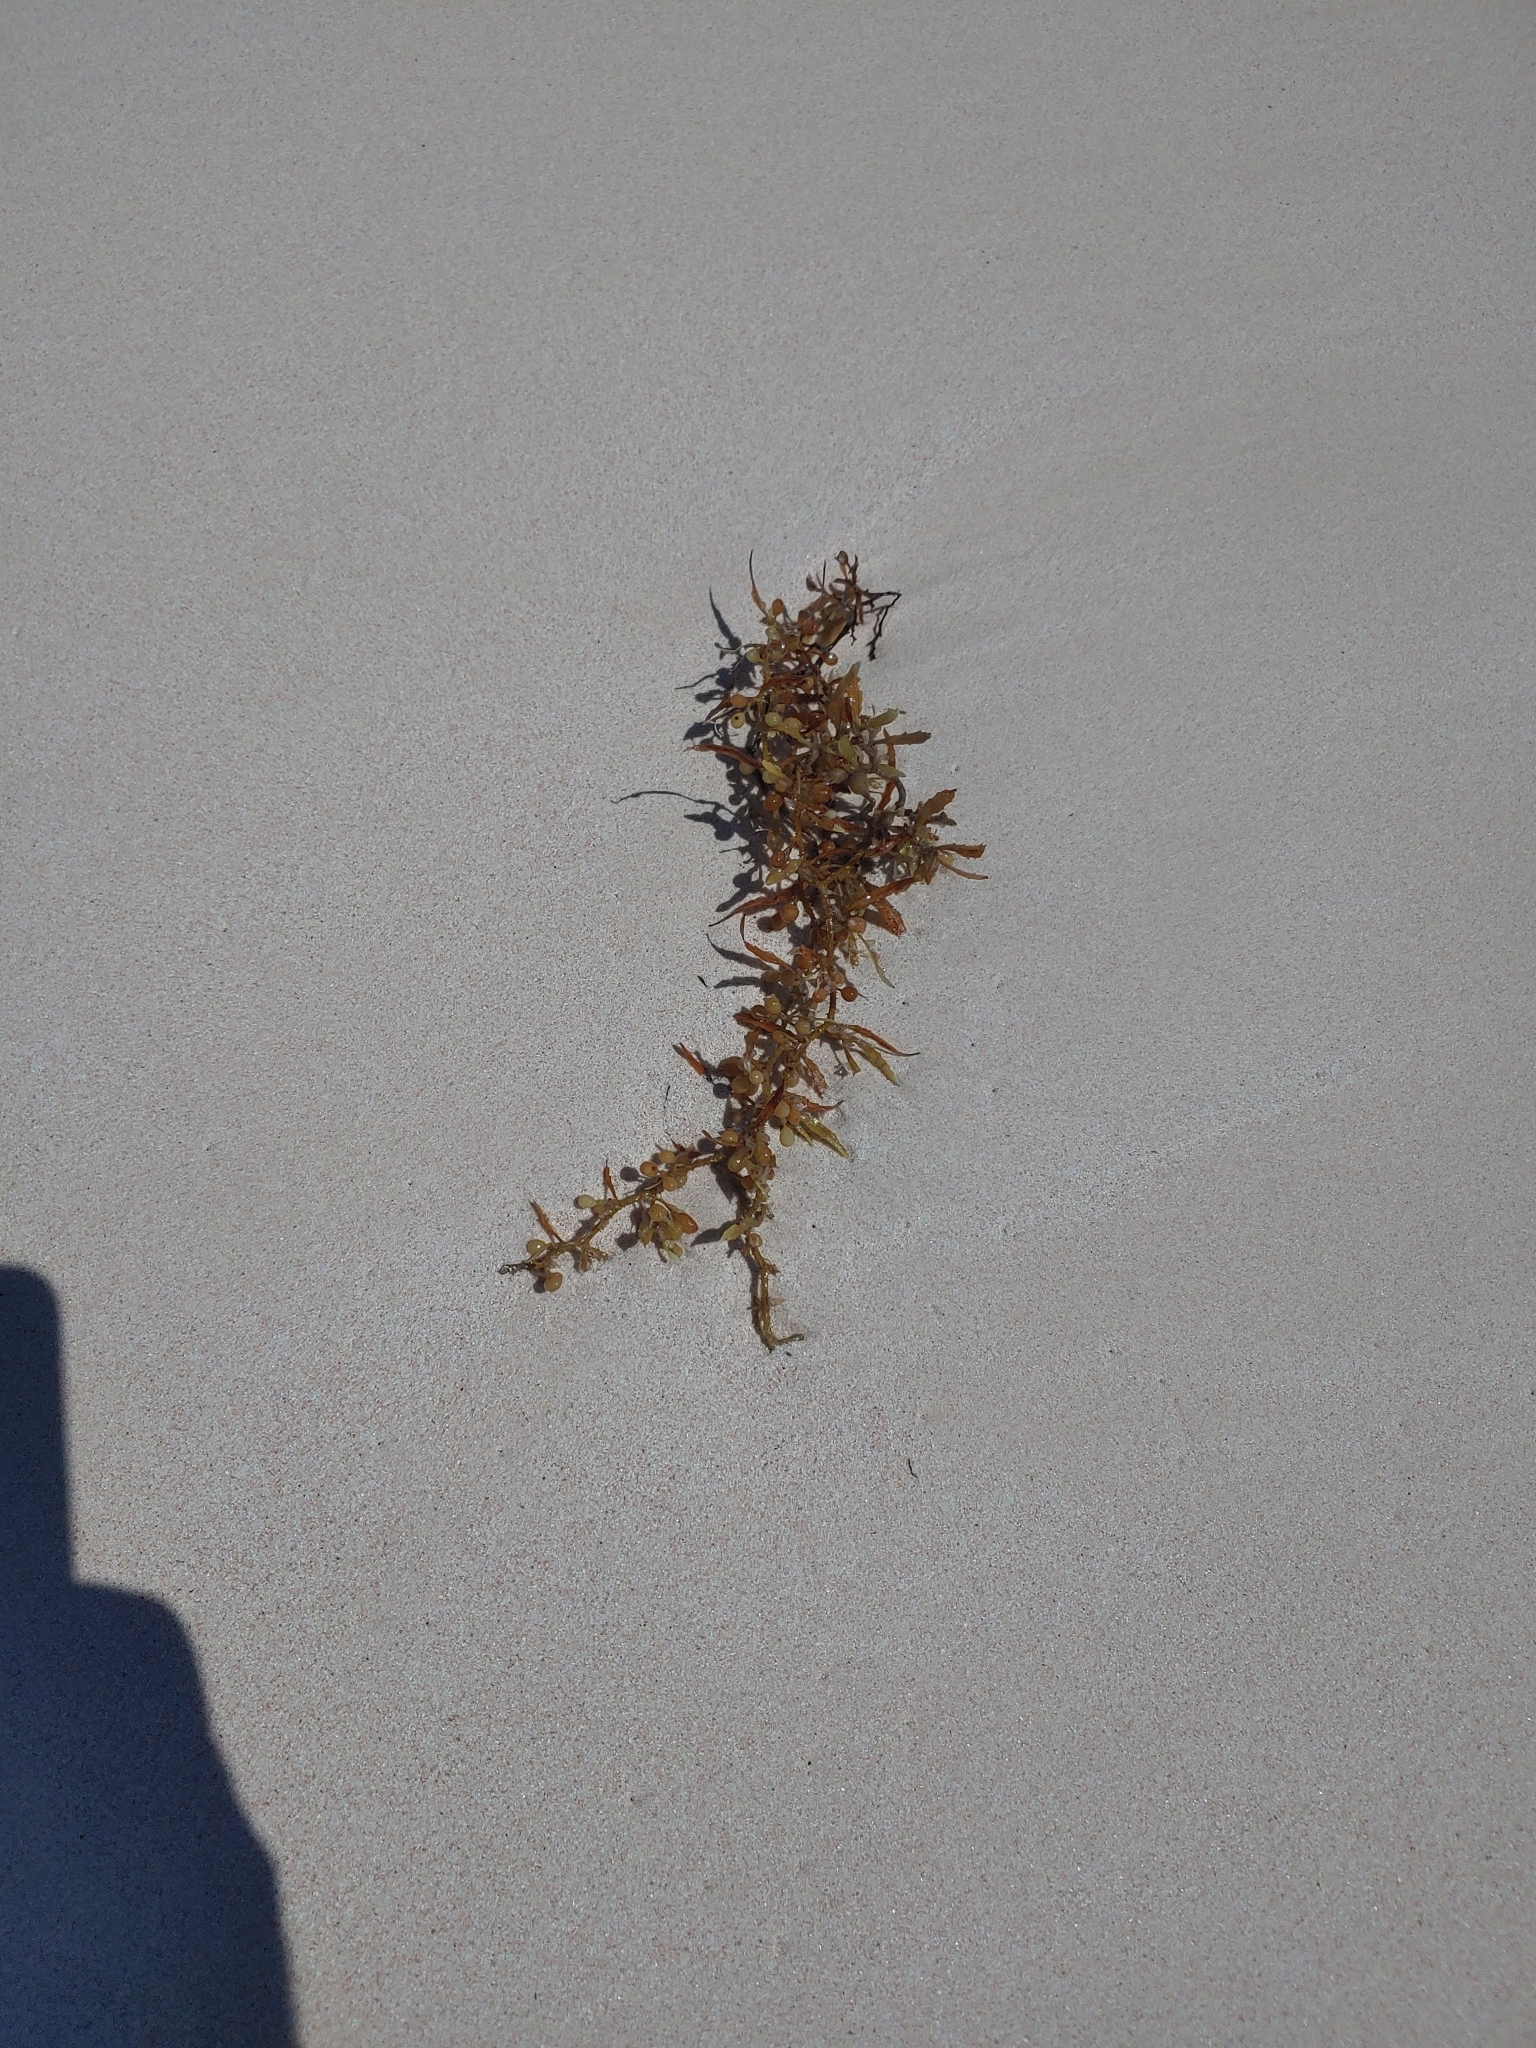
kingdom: Chromista
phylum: Ochrophyta
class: Phaeophyceae
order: Fucales
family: Sargassaceae
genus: Sargassum
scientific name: Sargassum fluitans
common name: Sargassum seaweed
